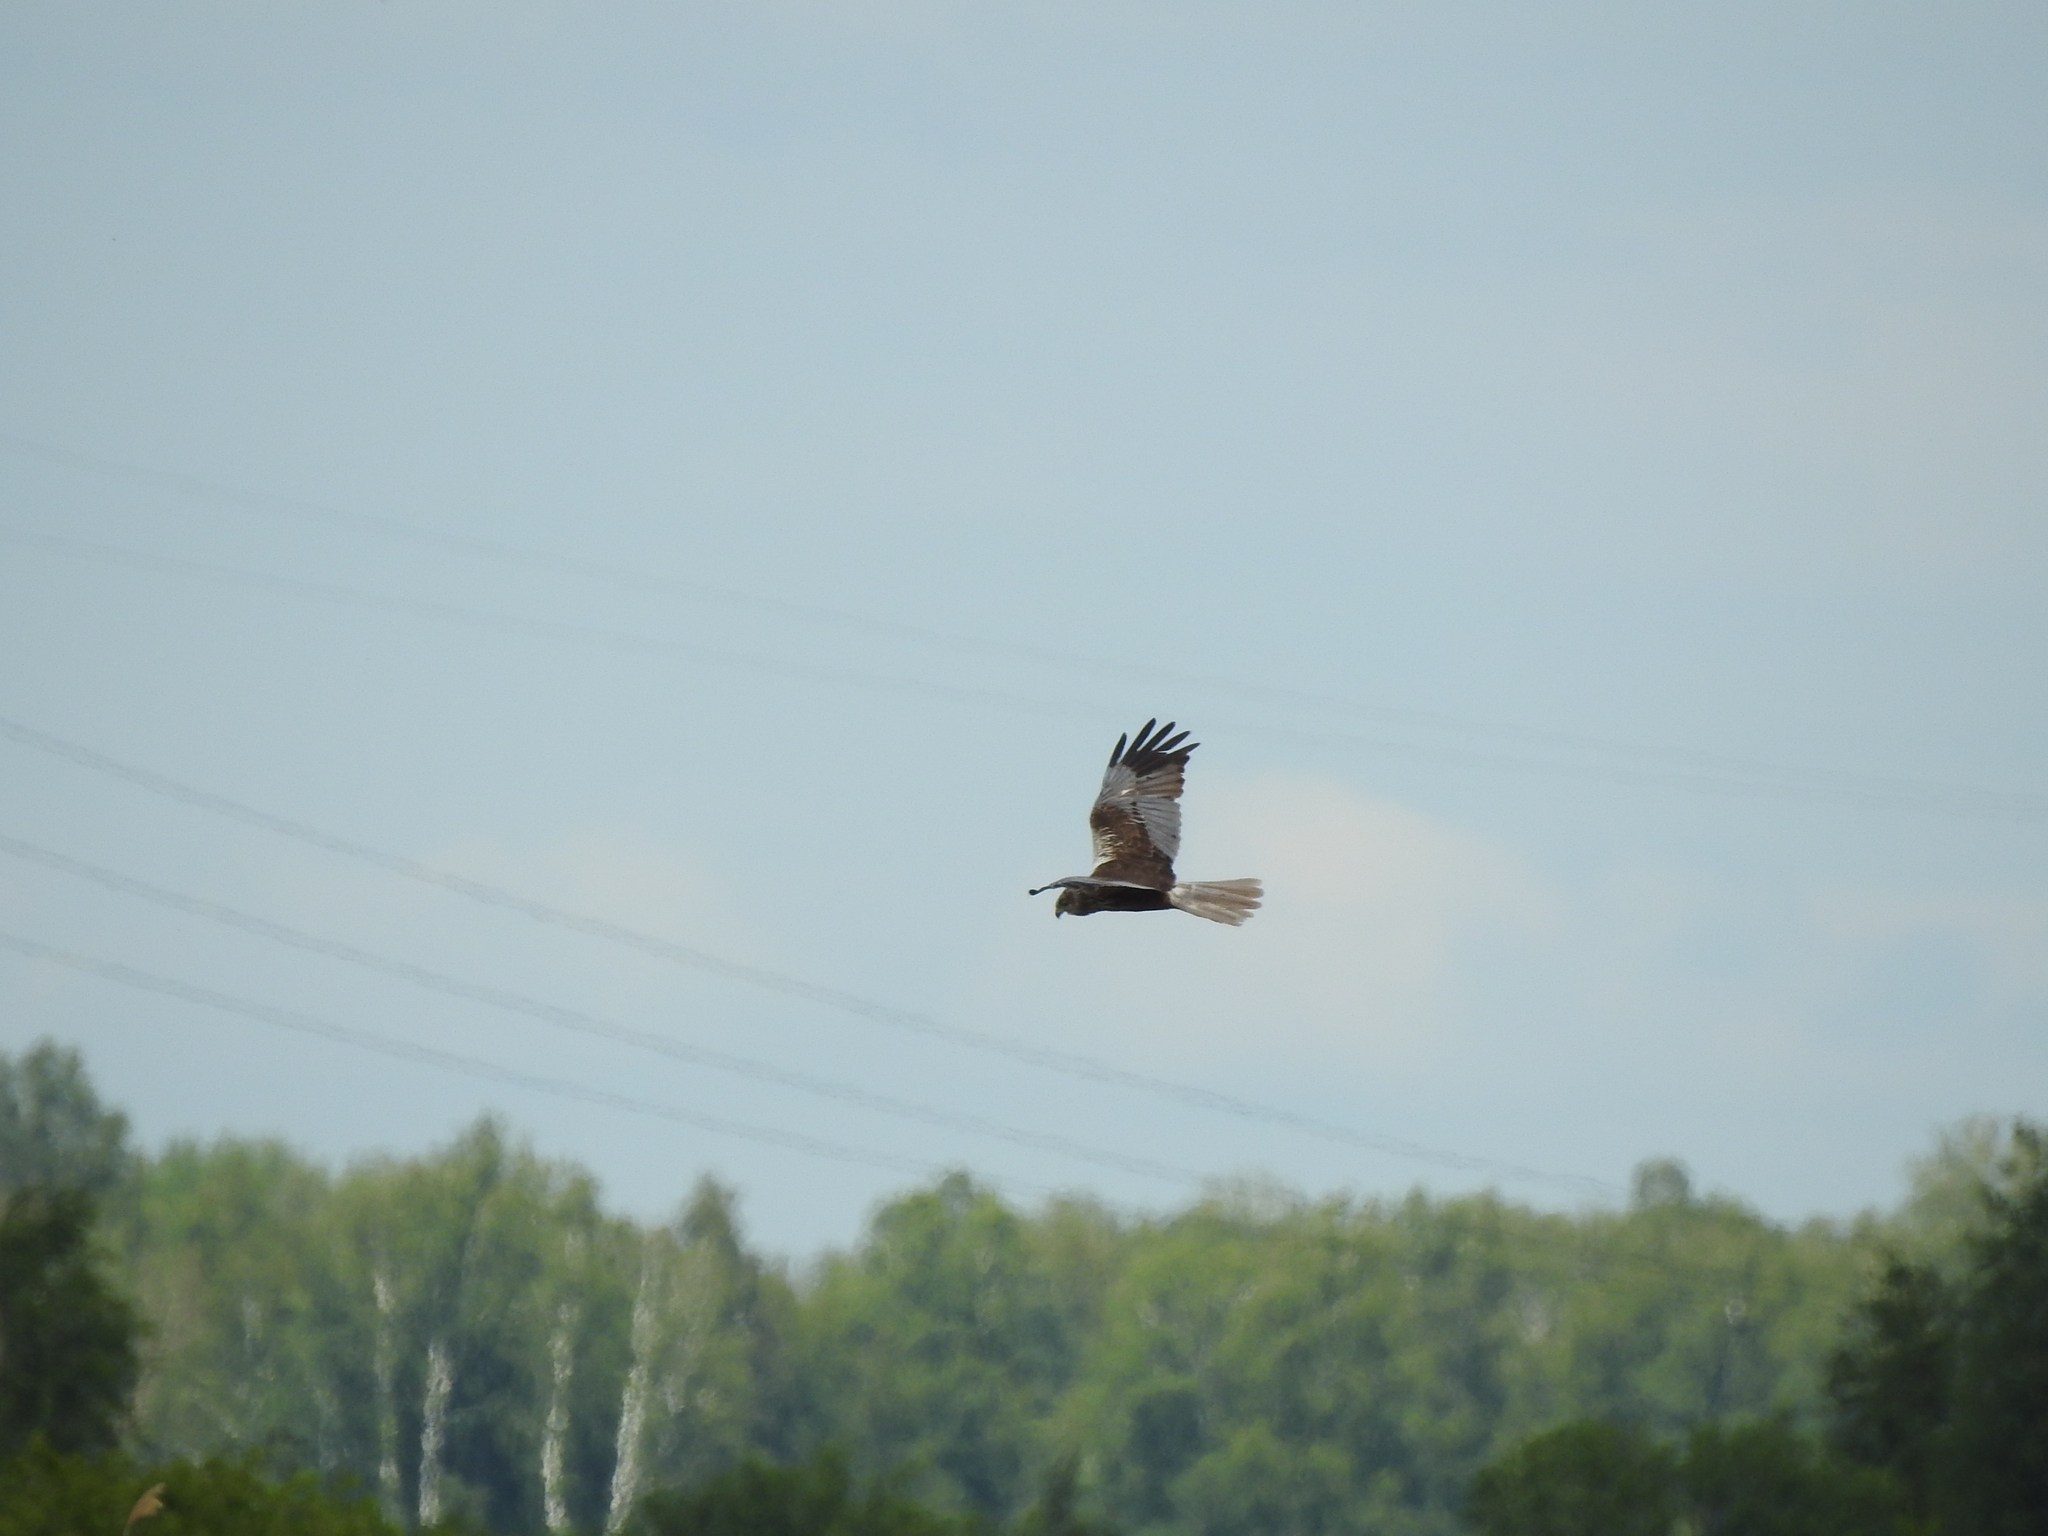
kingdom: Animalia
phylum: Chordata
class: Aves
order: Accipitriformes
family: Accipitridae
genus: Circus
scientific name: Circus aeruginosus
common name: Western marsh harrier
